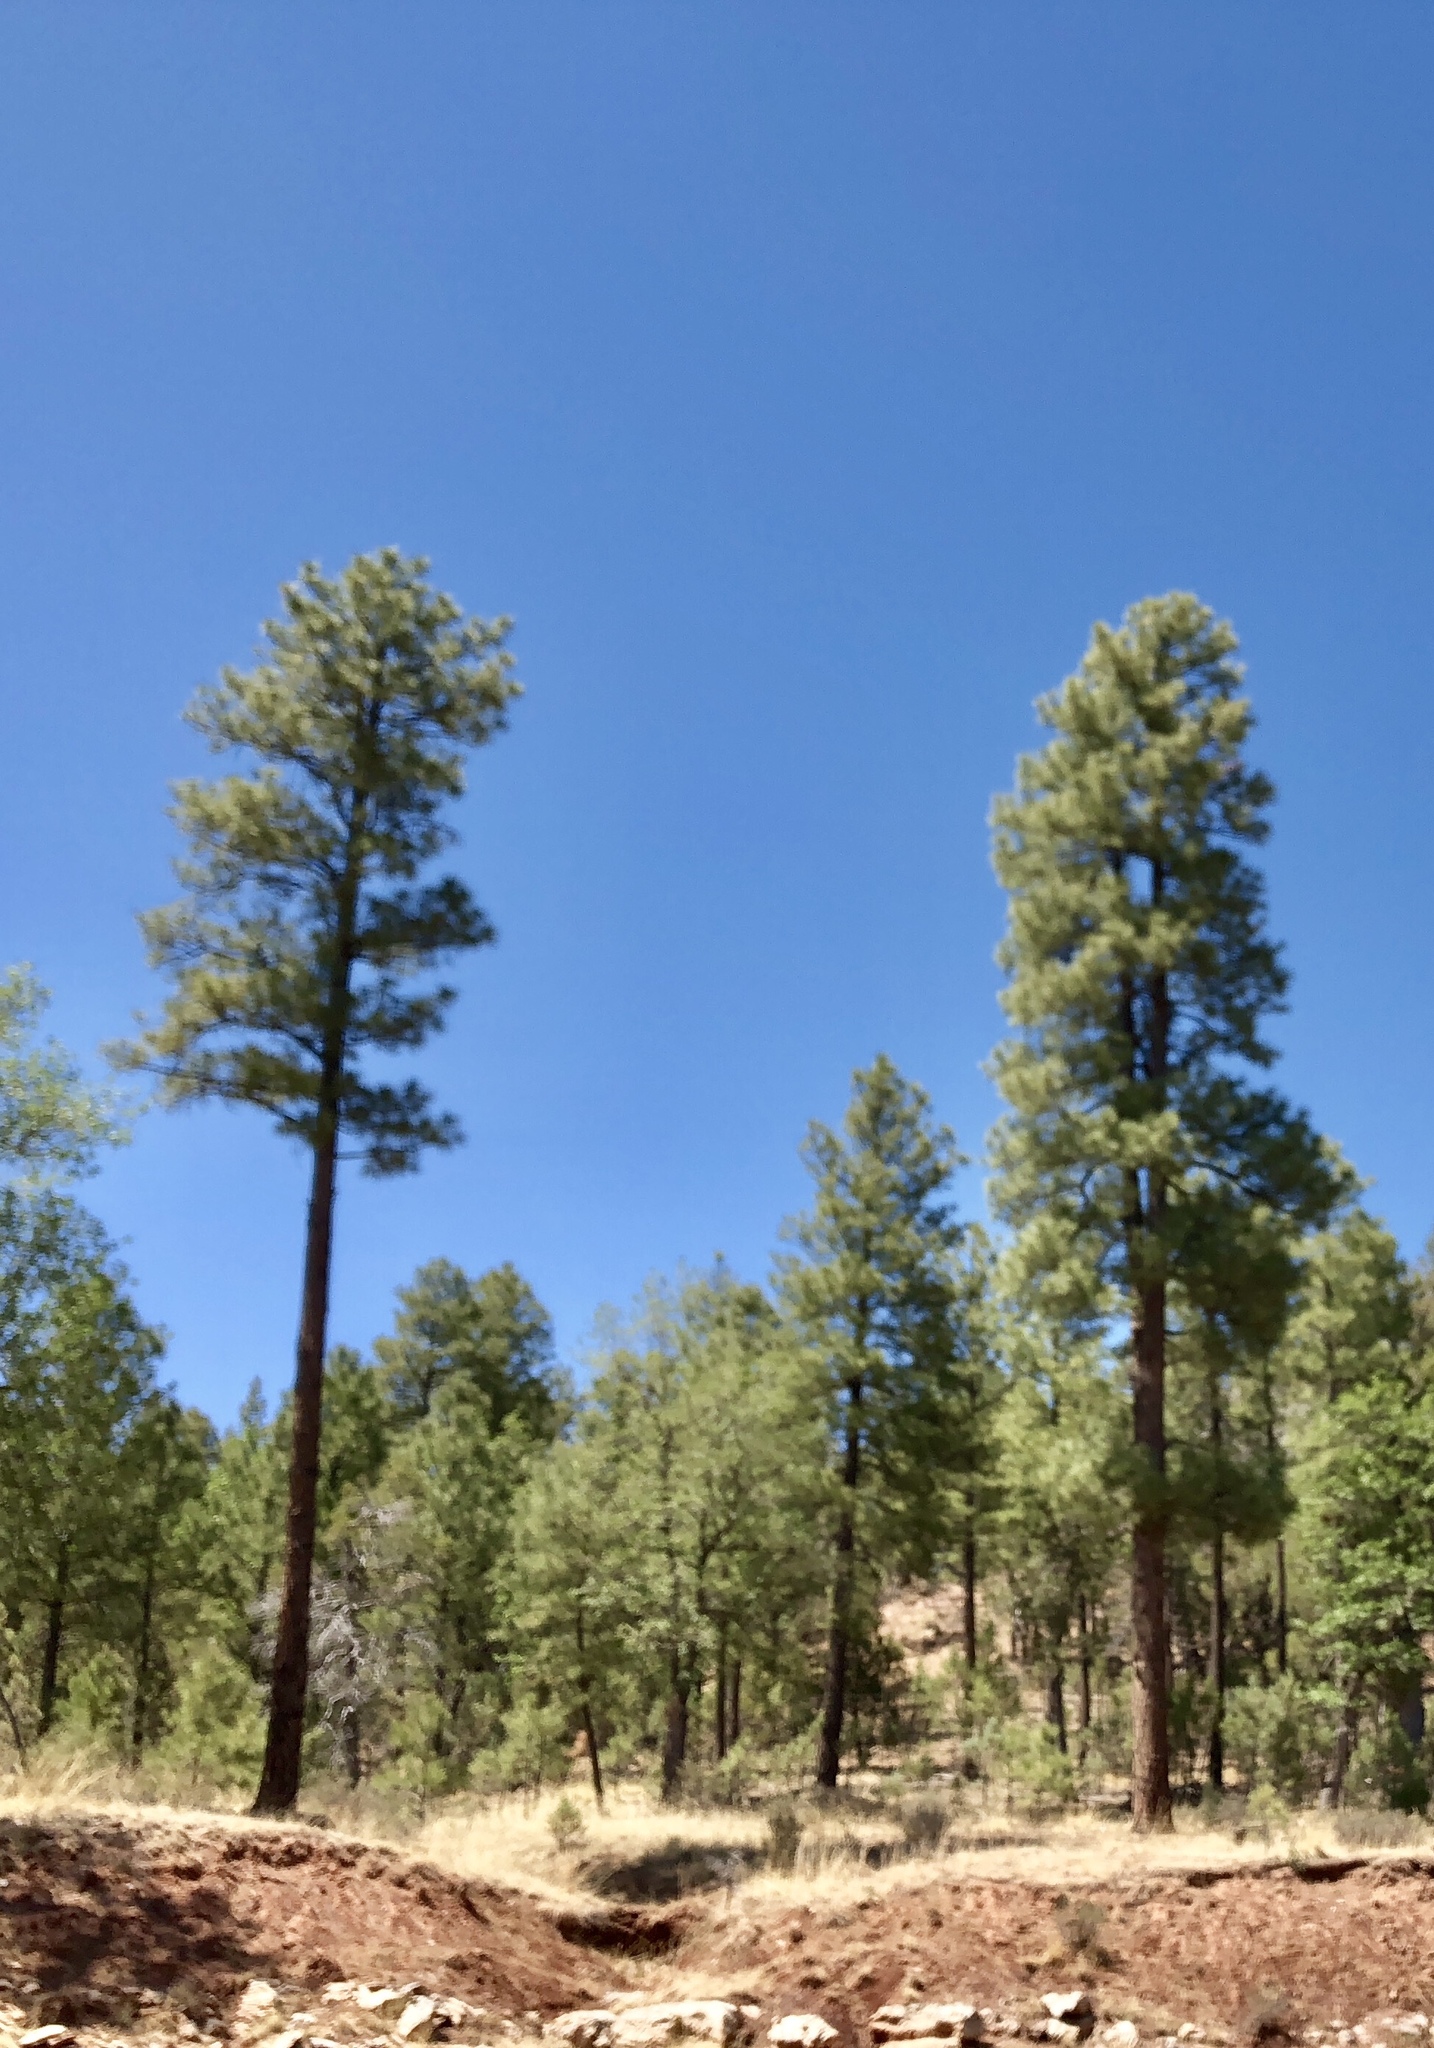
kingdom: Plantae
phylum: Tracheophyta
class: Pinopsida
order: Pinales
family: Pinaceae
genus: Pinus
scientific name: Pinus ponderosa
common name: Western yellow-pine
